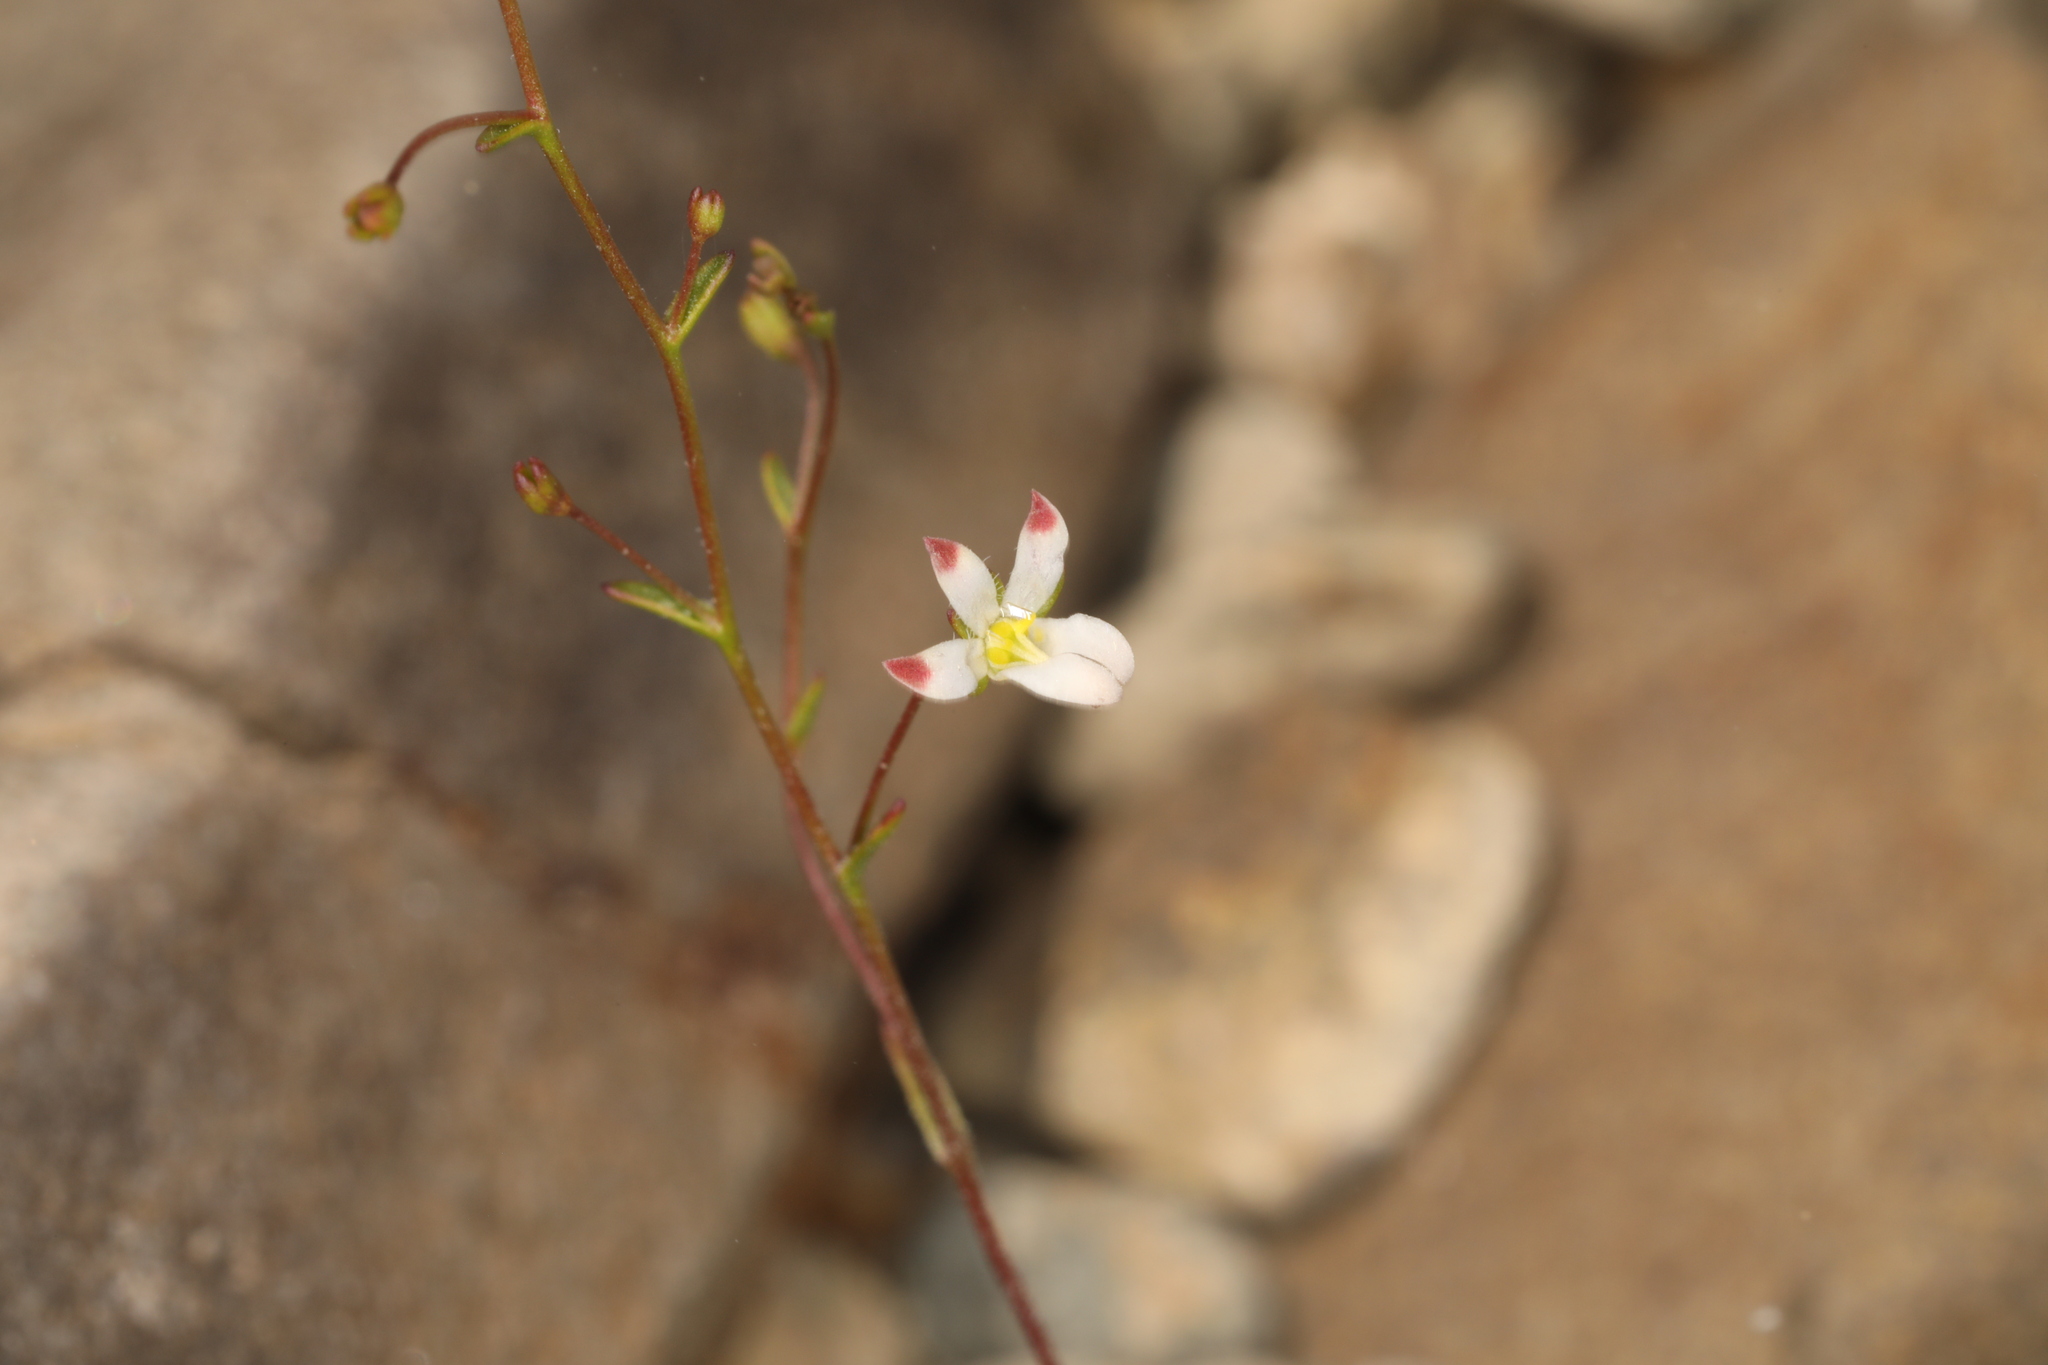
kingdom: Plantae
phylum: Tracheophyta
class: Magnoliopsida
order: Asterales
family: Campanulaceae
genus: Nemacladus
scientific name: Nemacladus orientalis
